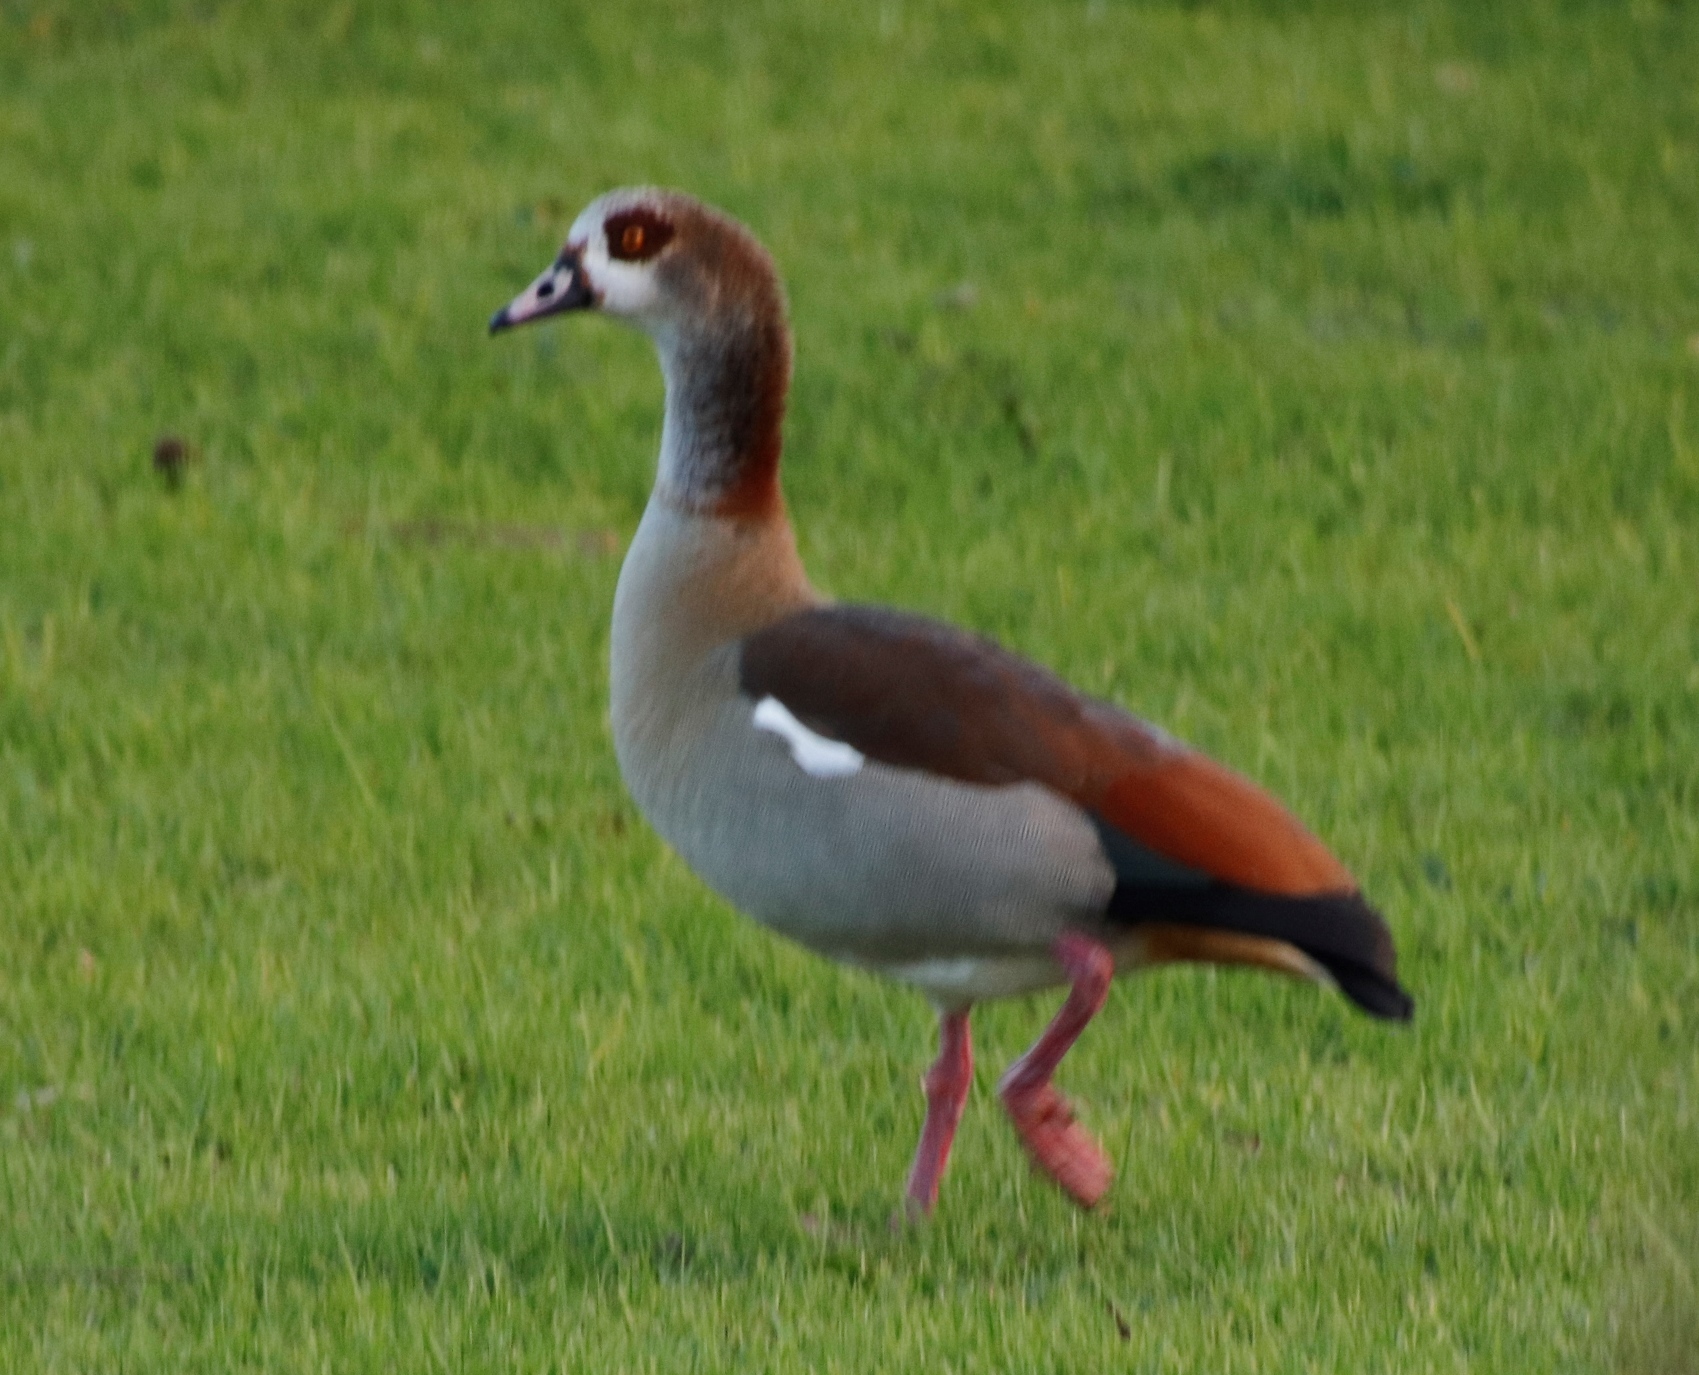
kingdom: Animalia
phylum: Chordata
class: Aves
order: Anseriformes
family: Anatidae
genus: Alopochen
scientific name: Alopochen aegyptiaca
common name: Egyptian goose
